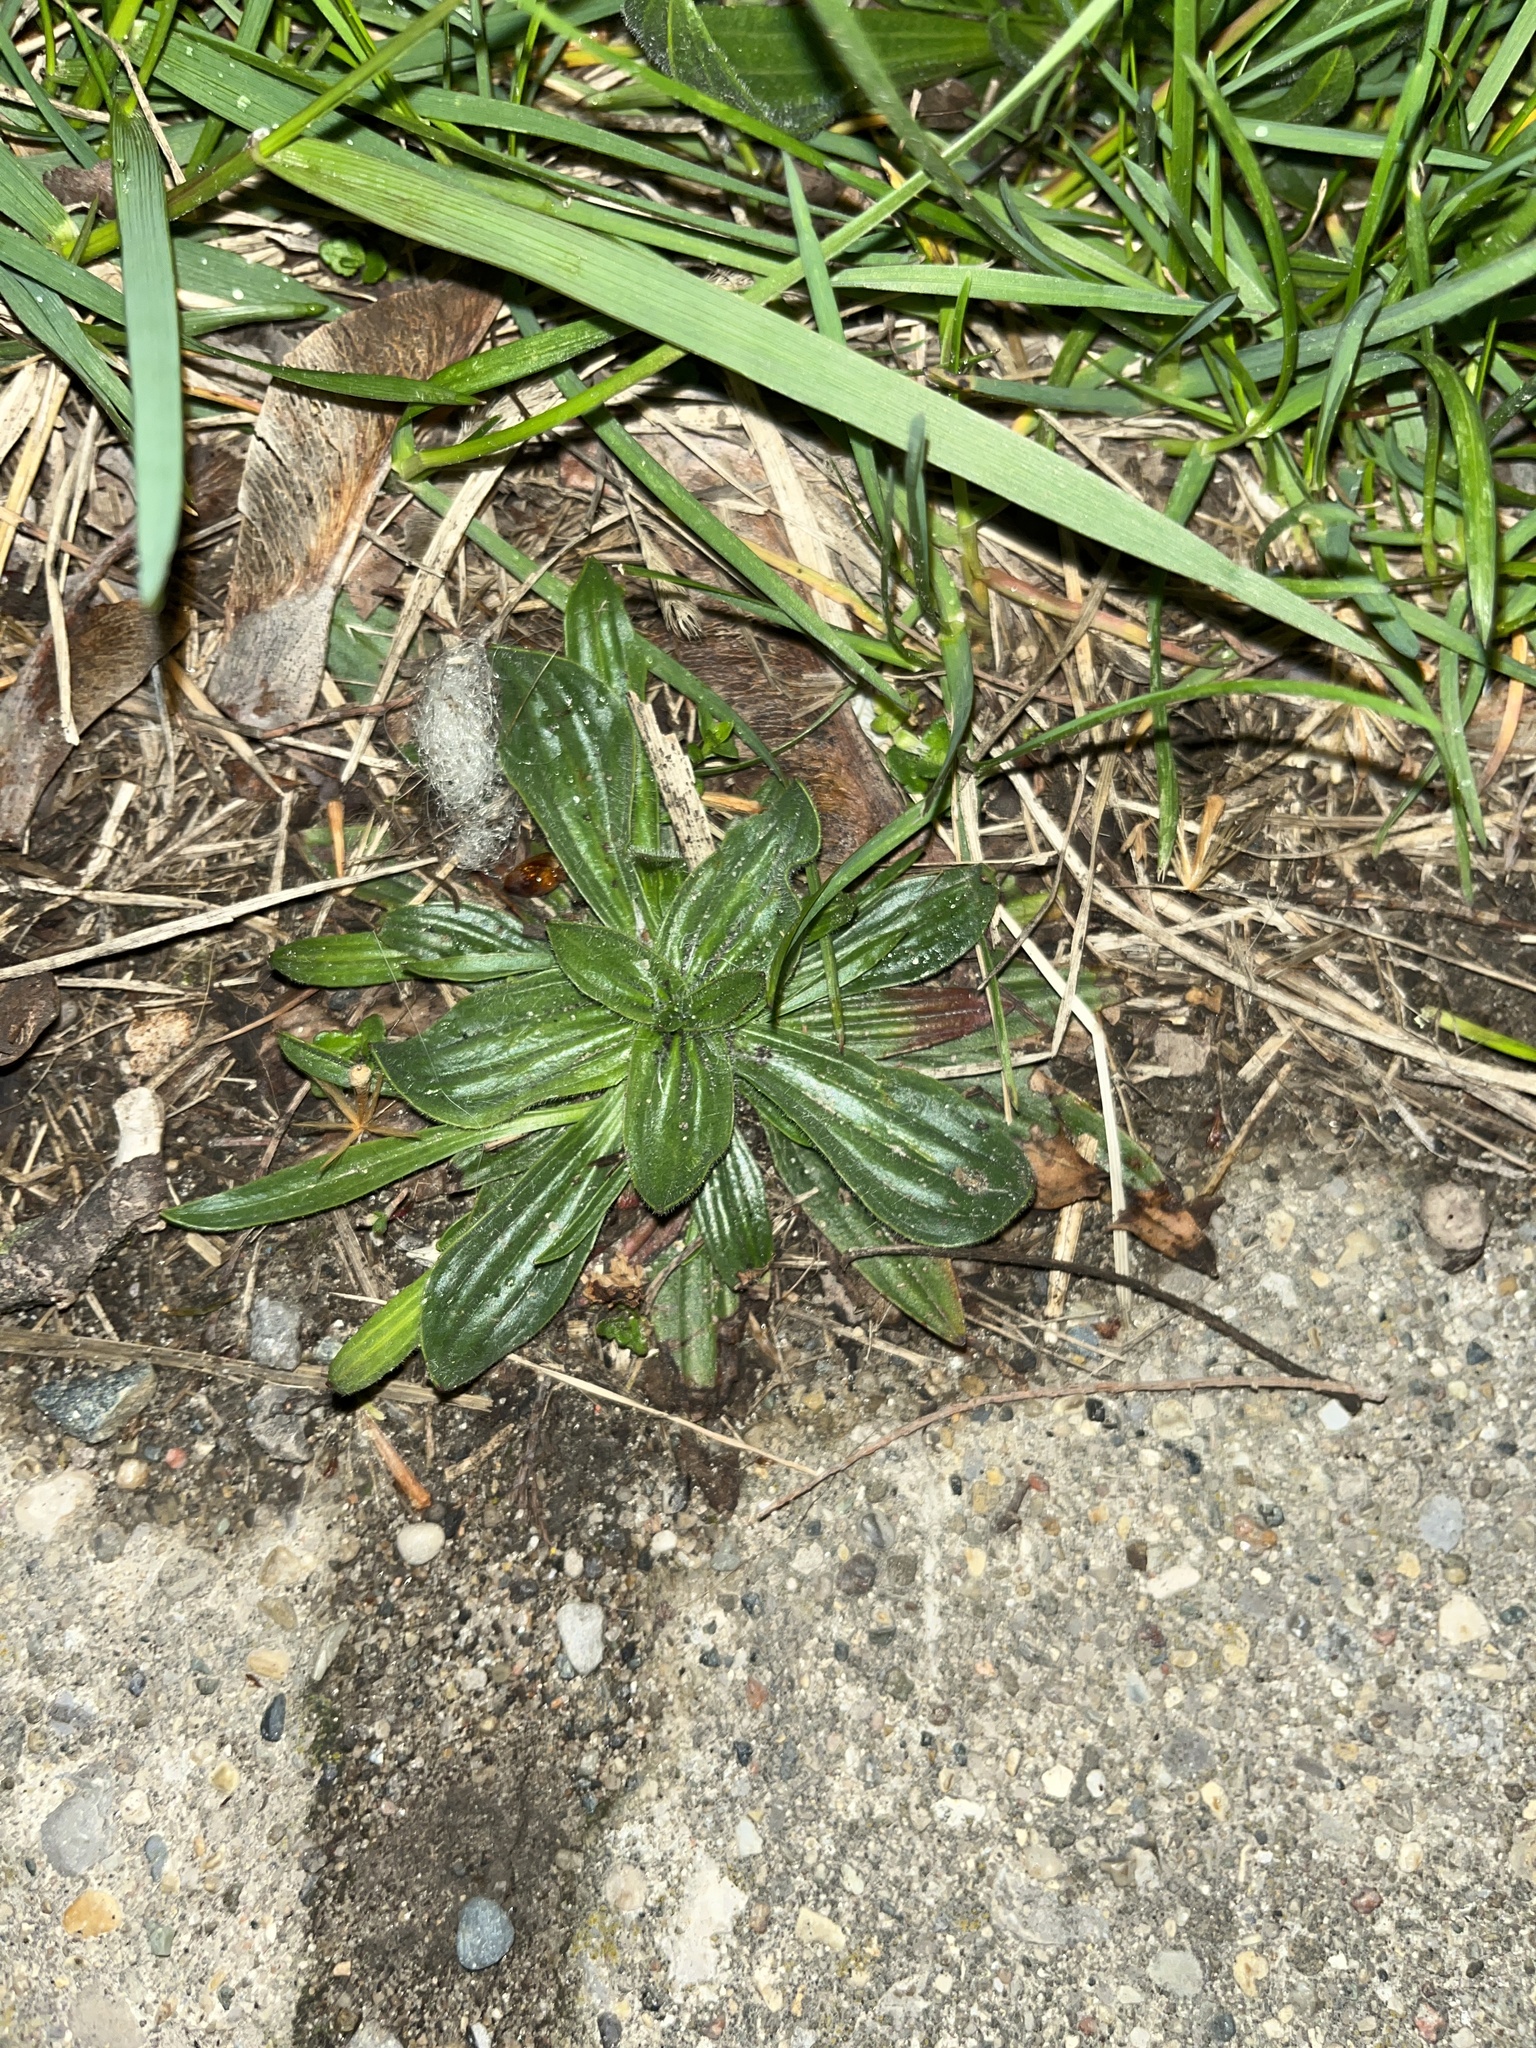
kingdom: Plantae
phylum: Tracheophyta
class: Magnoliopsida
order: Lamiales
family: Plantaginaceae
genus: Plantago
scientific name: Plantago lanceolata
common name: Ribwort plantain
